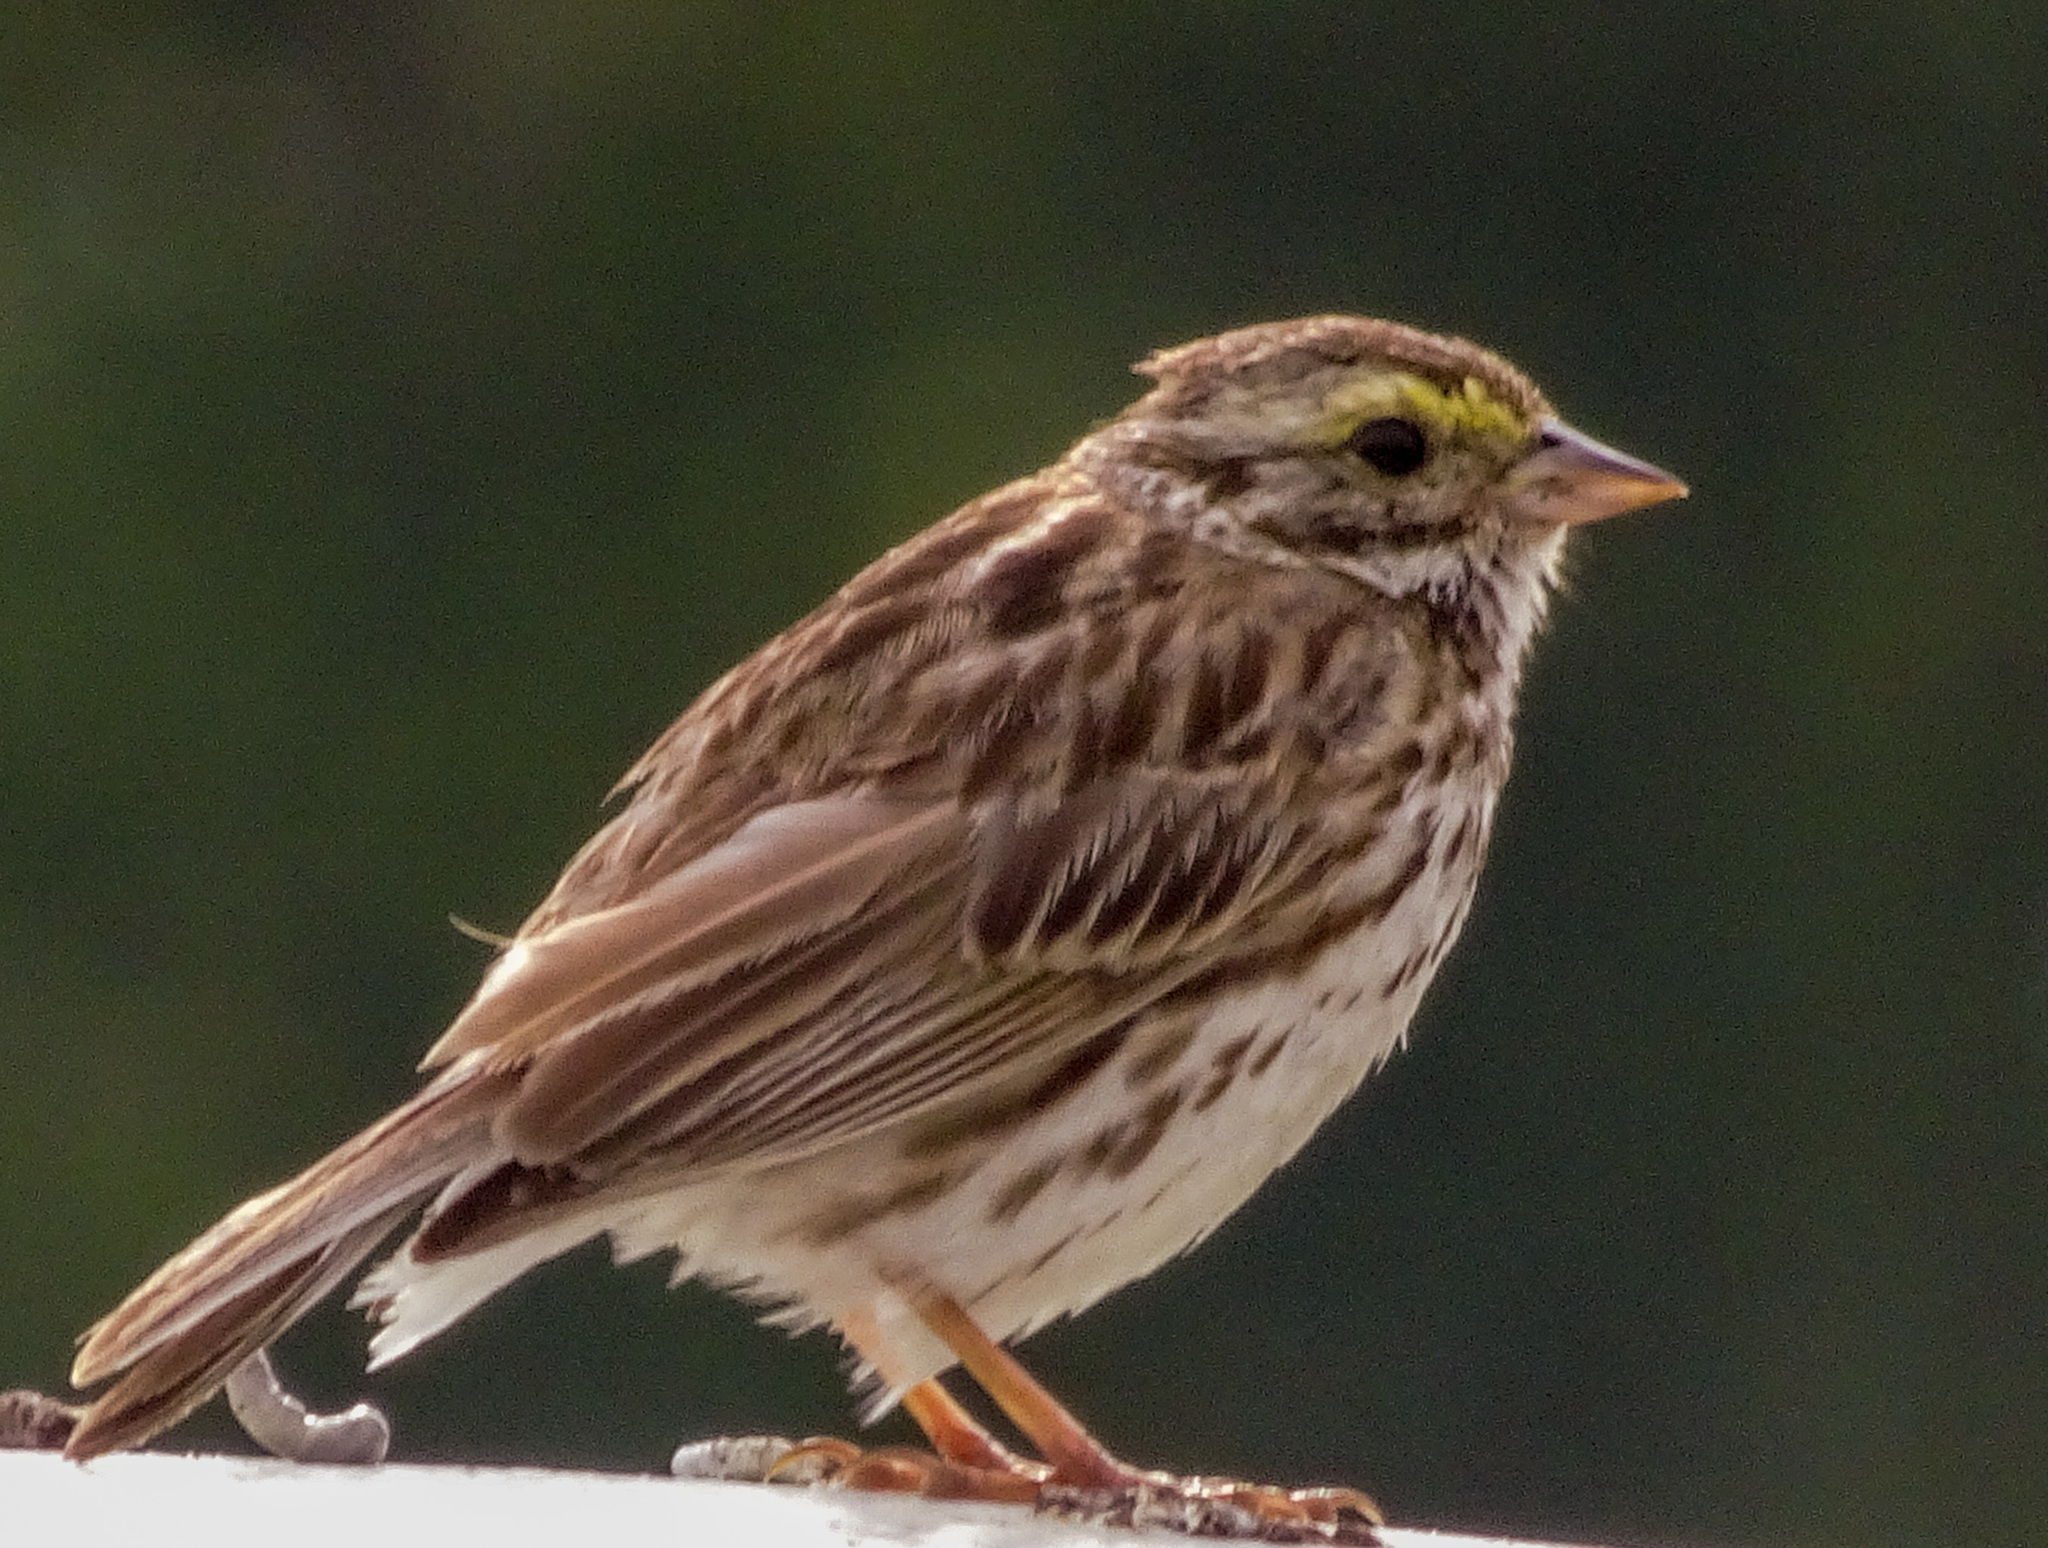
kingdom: Animalia
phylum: Chordata
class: Aves
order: Passeriformes
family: Passerellidae
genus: Passerculus
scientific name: Passerculus sandwichensis
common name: Savannah sparrow
